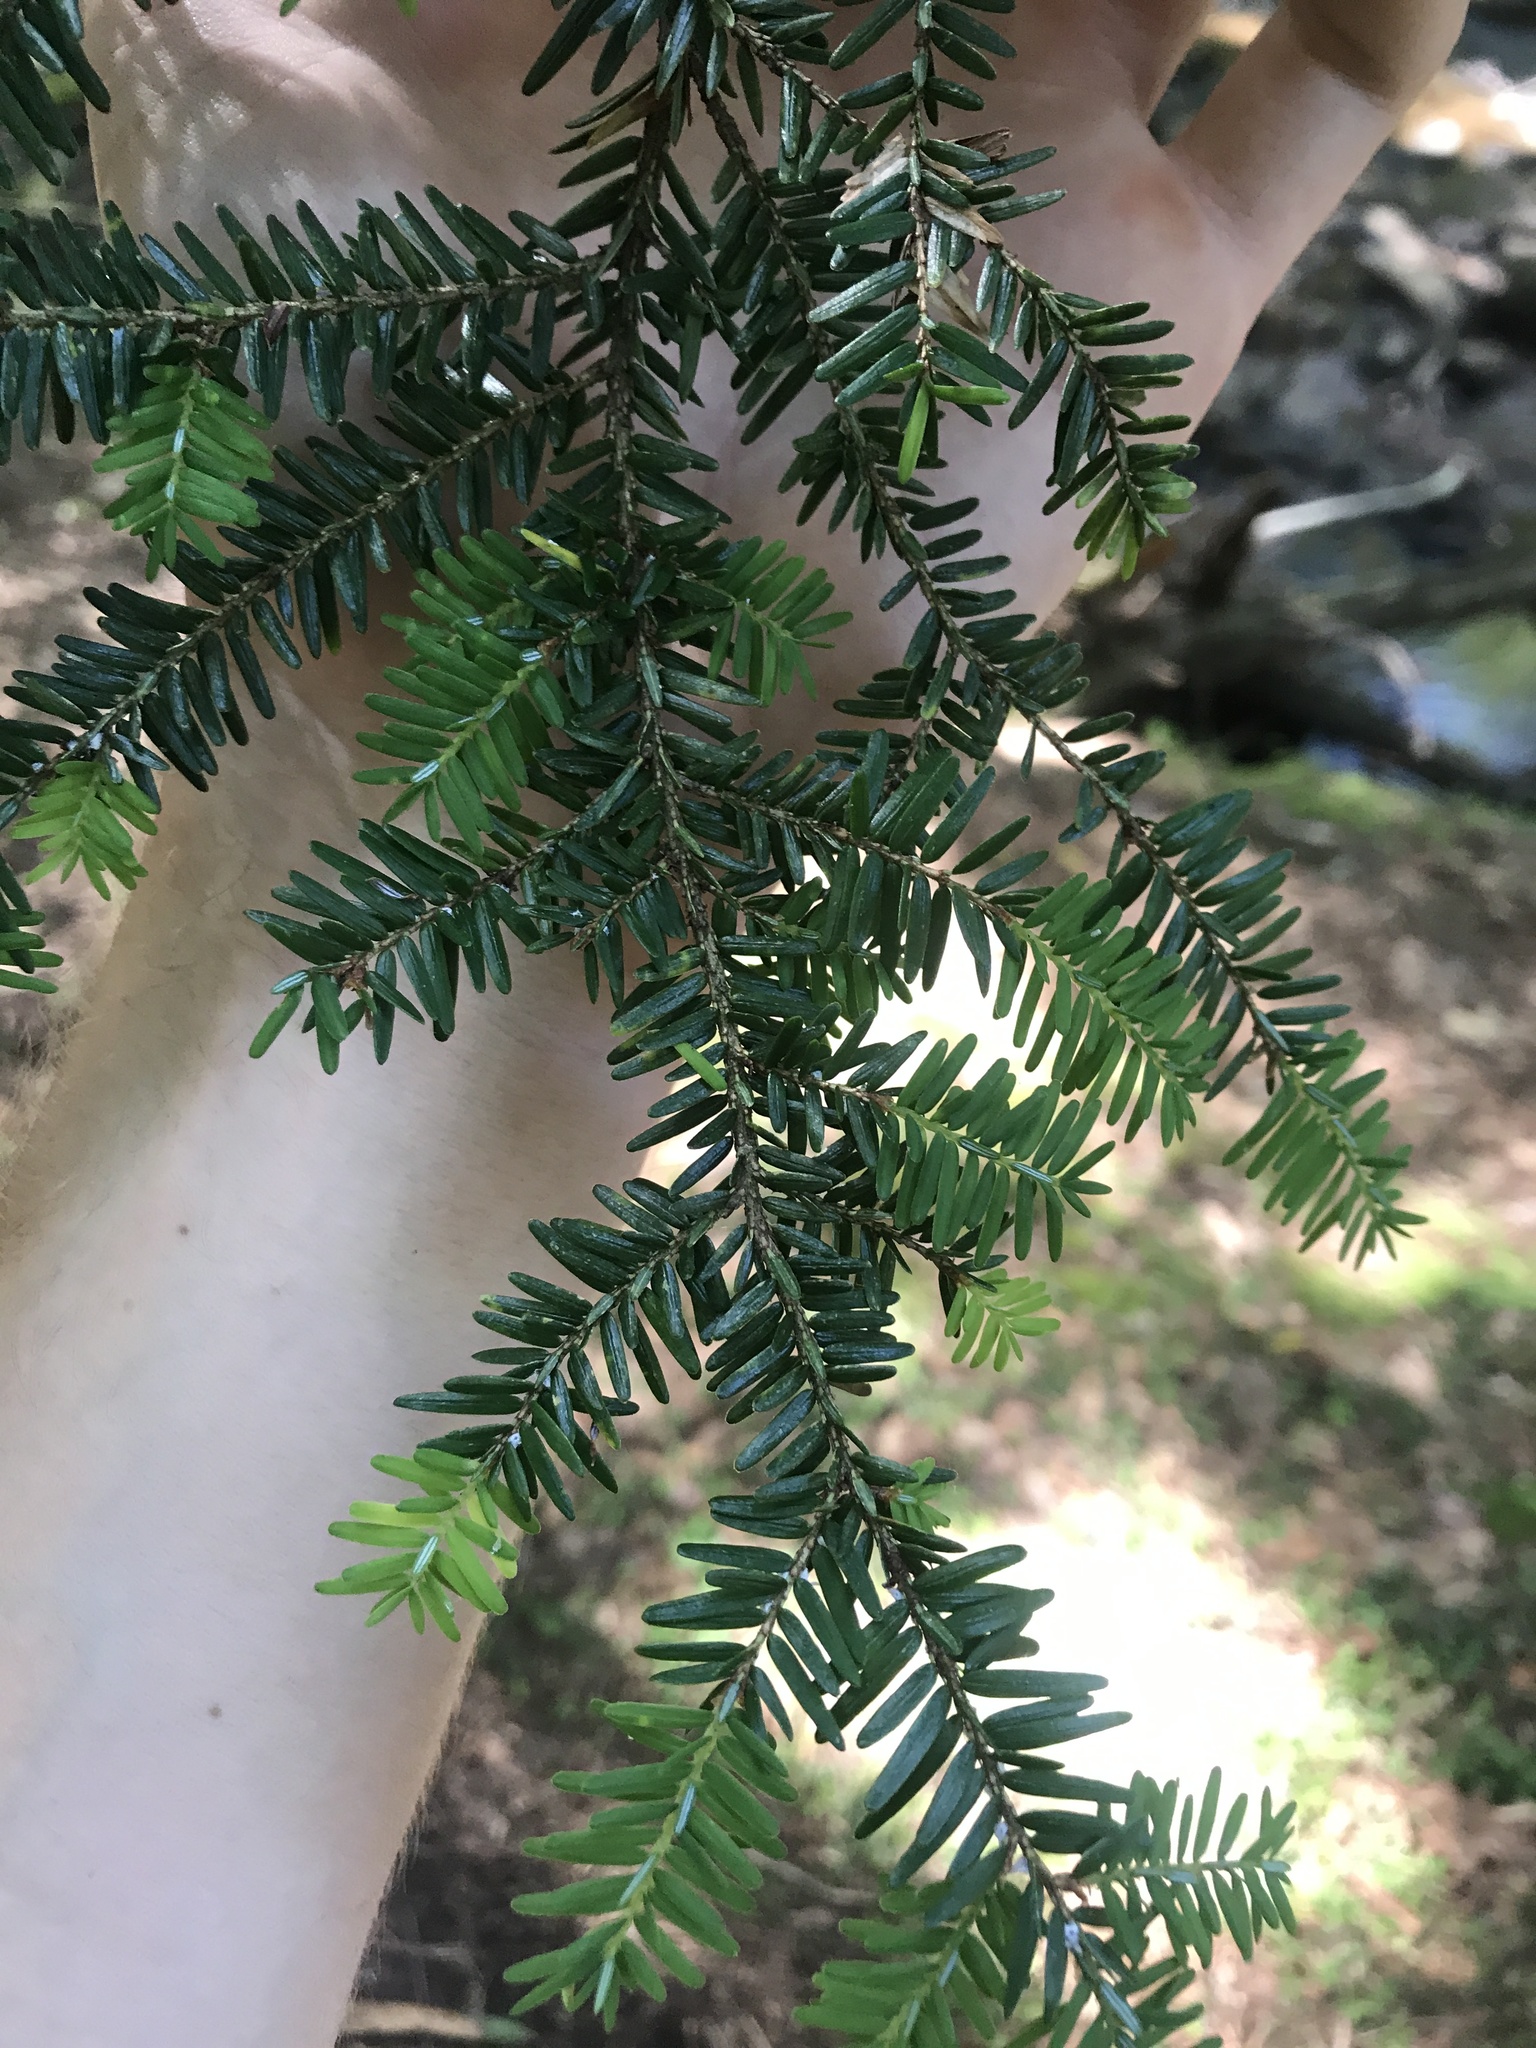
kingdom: Plantae
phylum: Tracheophyta
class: Pinopsida
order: Pinales
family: Pinaceae
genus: Tsuga
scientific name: Tsuga canadensis
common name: Eastern hemlock
